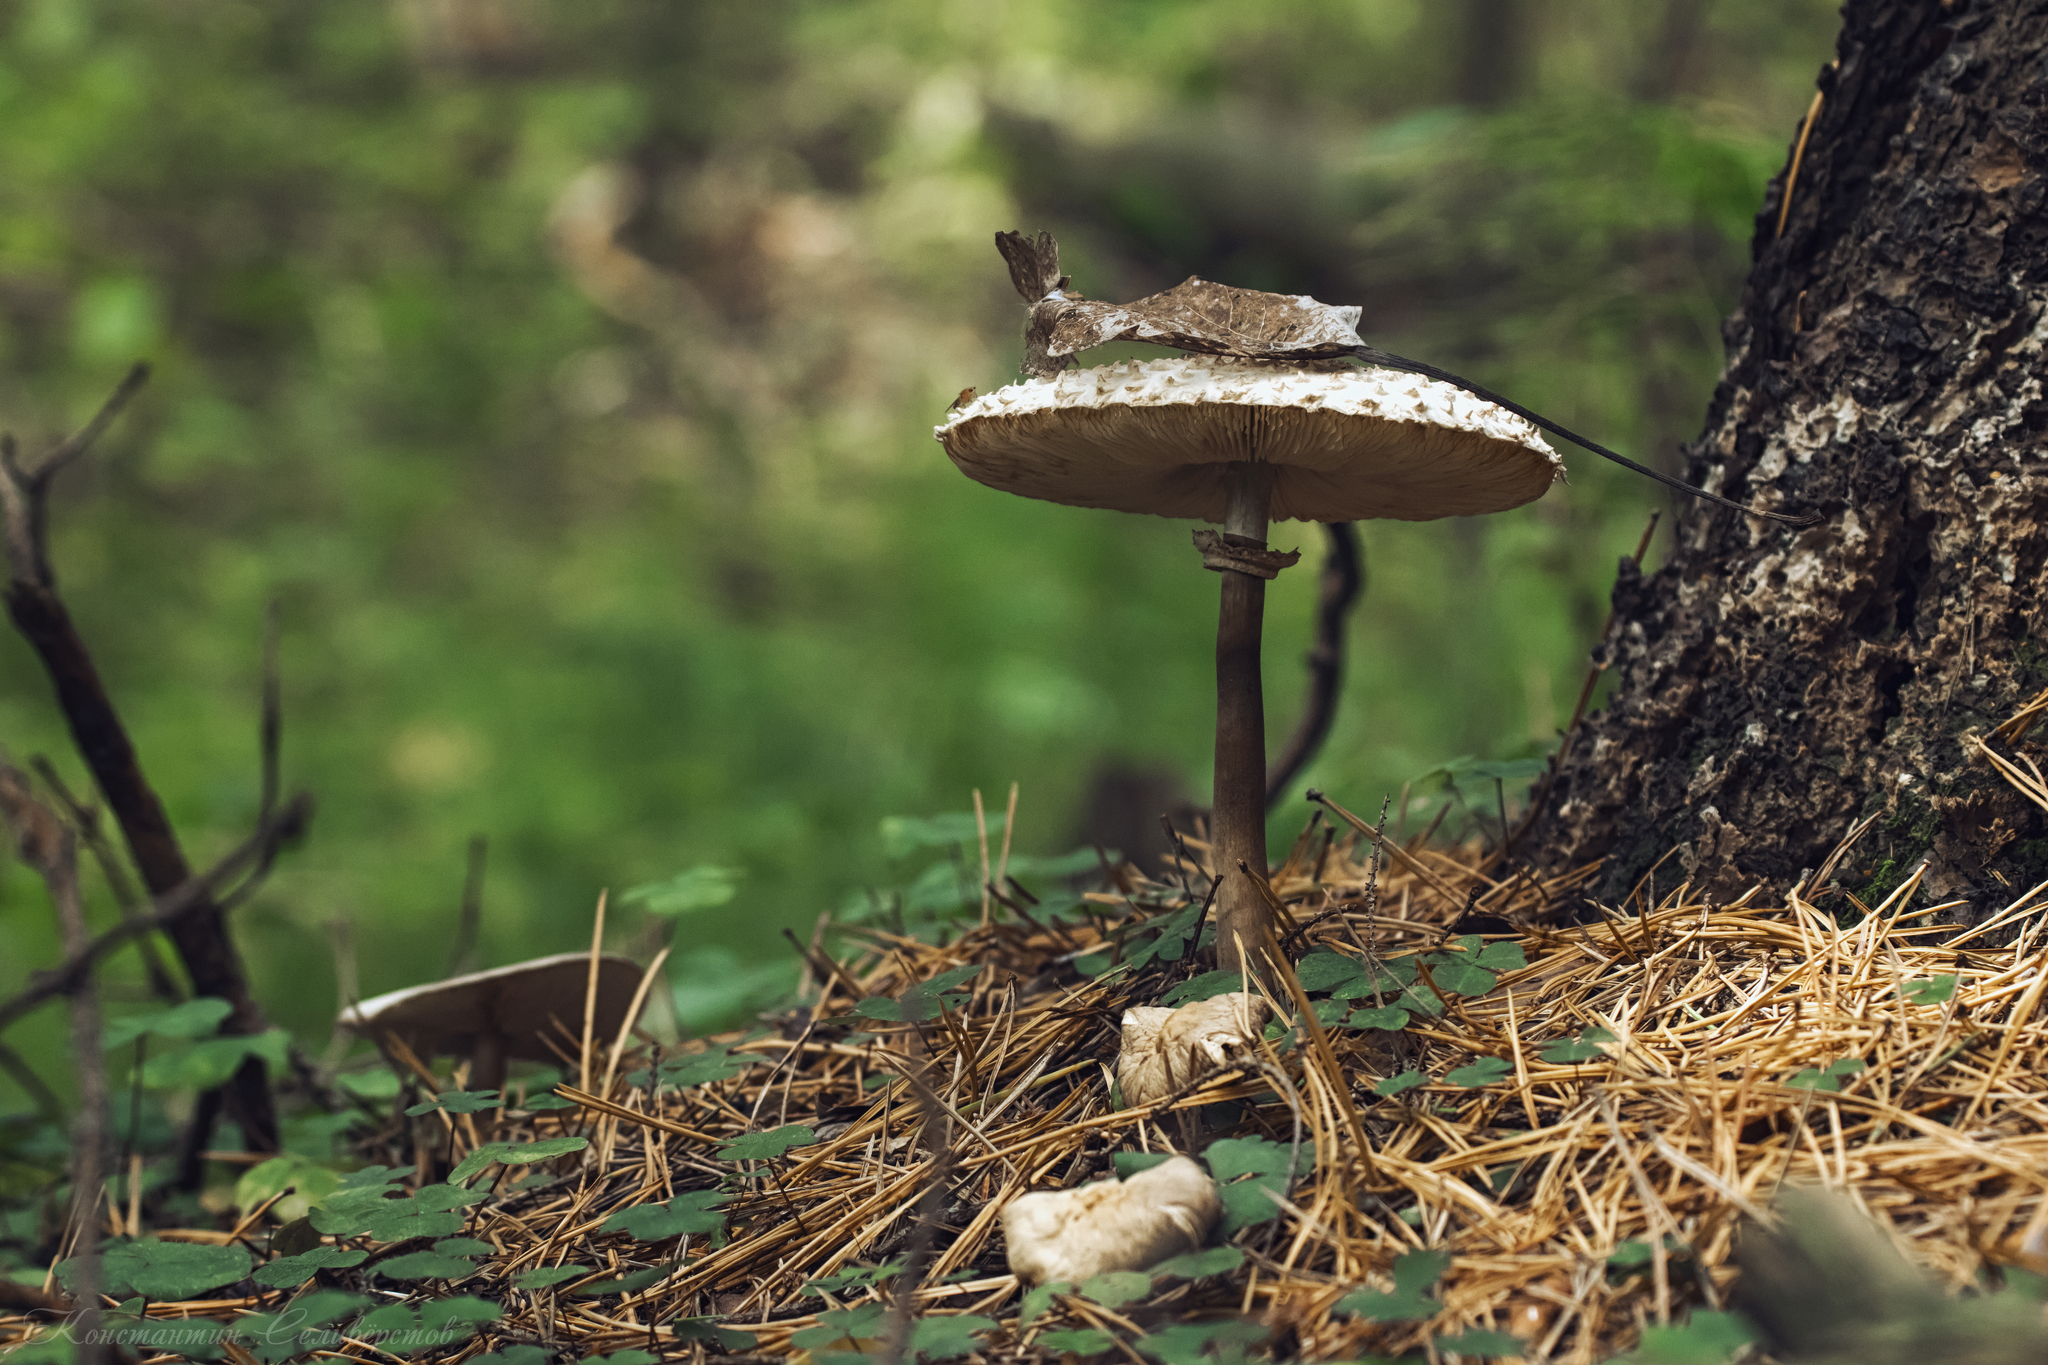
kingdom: Fungi
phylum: Basidiomycota
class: Agaricomycetes
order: Agaricales
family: Agaricaceae
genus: Chlorophyllum
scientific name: Chlorophyllum rhacodes
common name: Shaggy parasol
